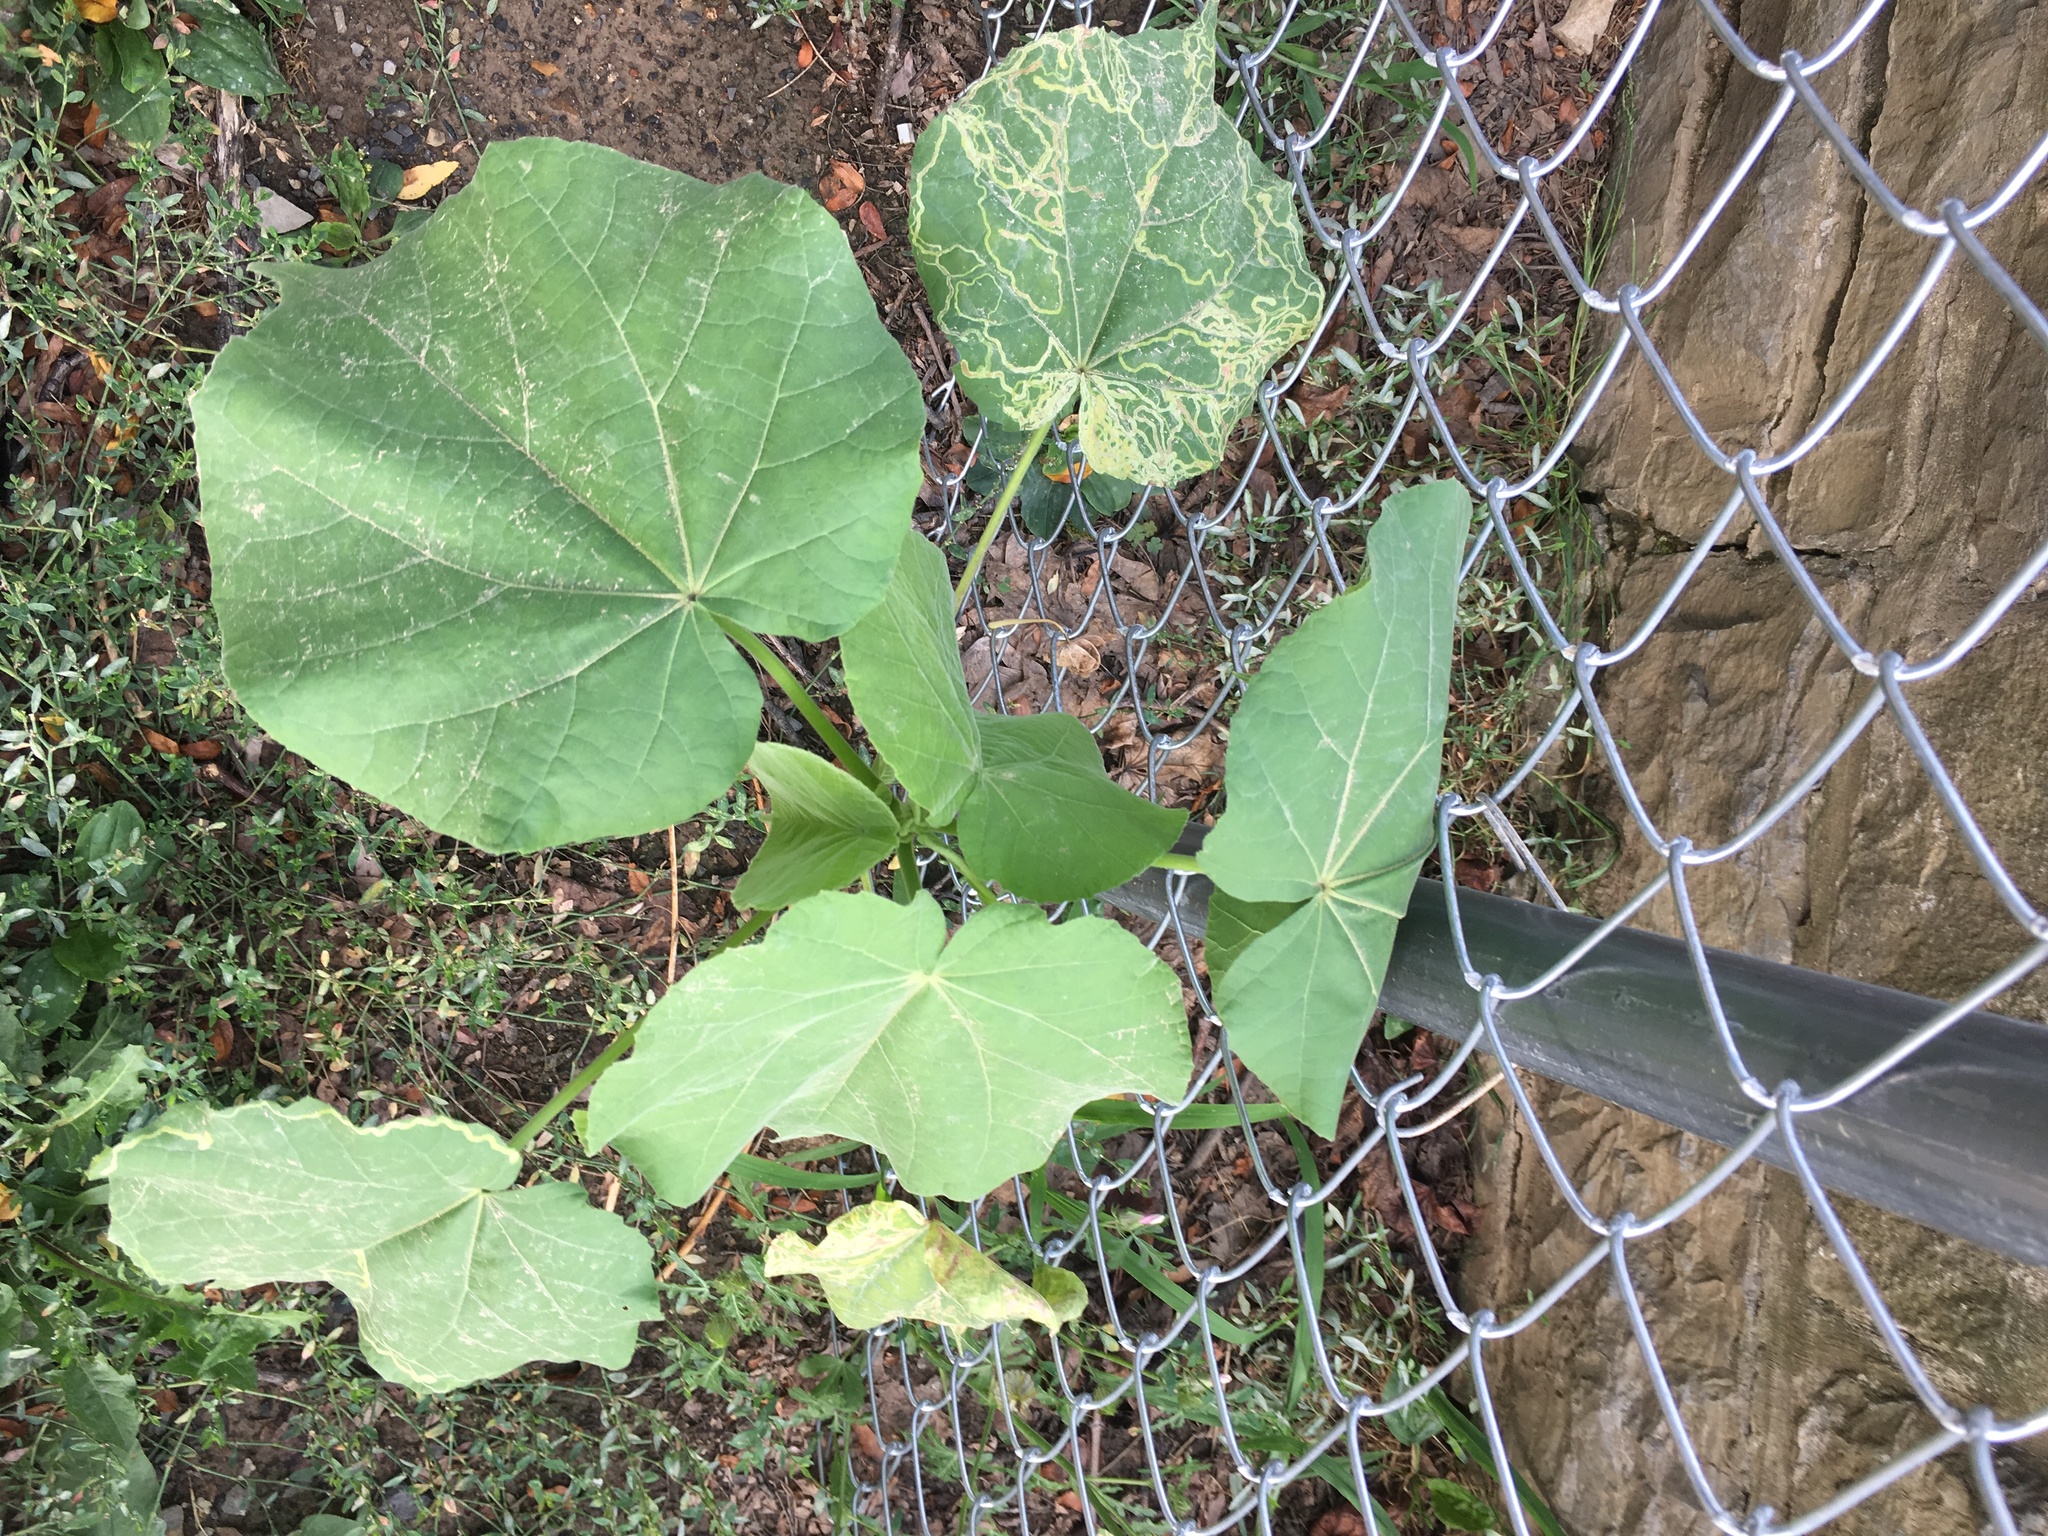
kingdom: Plantae
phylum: Tracheophyta
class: Magnoliopsida
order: Malvales
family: Malvaceae
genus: Abutilon
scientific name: Abutilon theophrasti
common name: Velvetleaf
